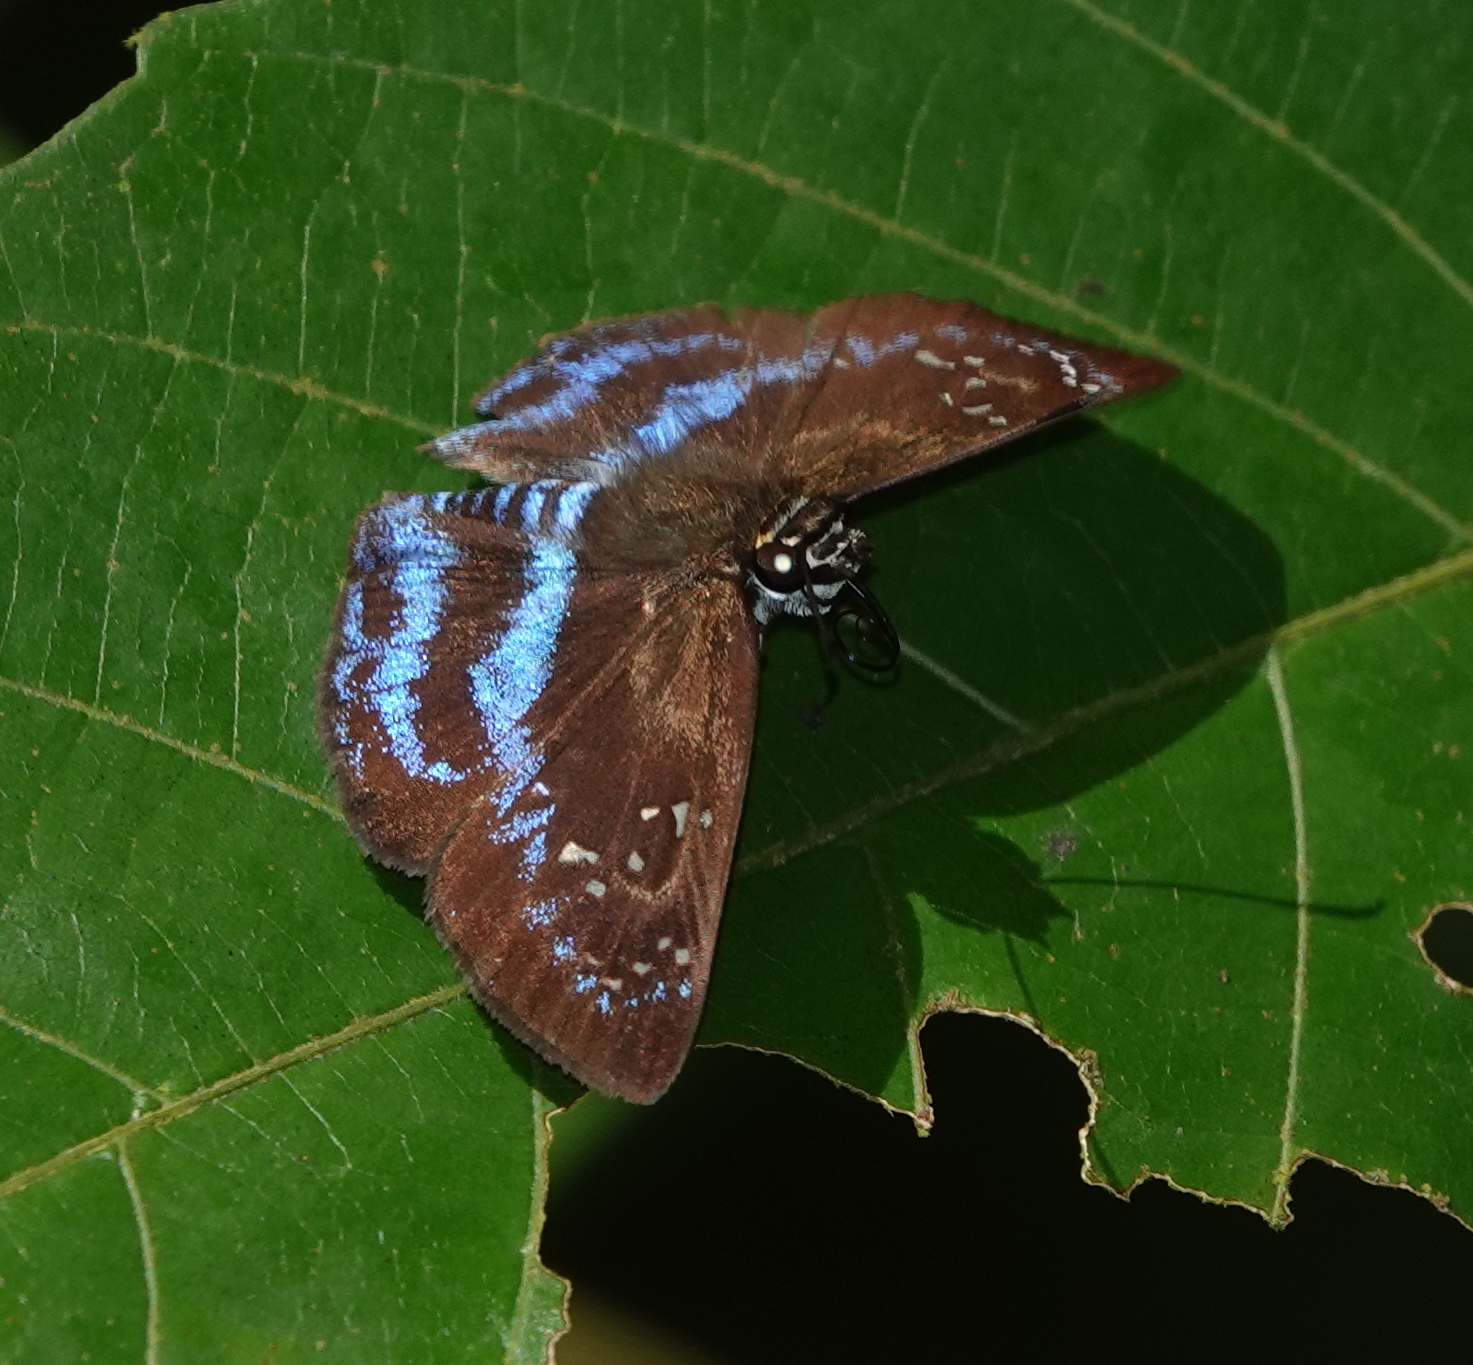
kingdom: Animalia
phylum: Arthropoda
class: Insecta
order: Lepidoptera
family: Hesperiidae
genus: Quadrus
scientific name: Quadrus contubernalis
